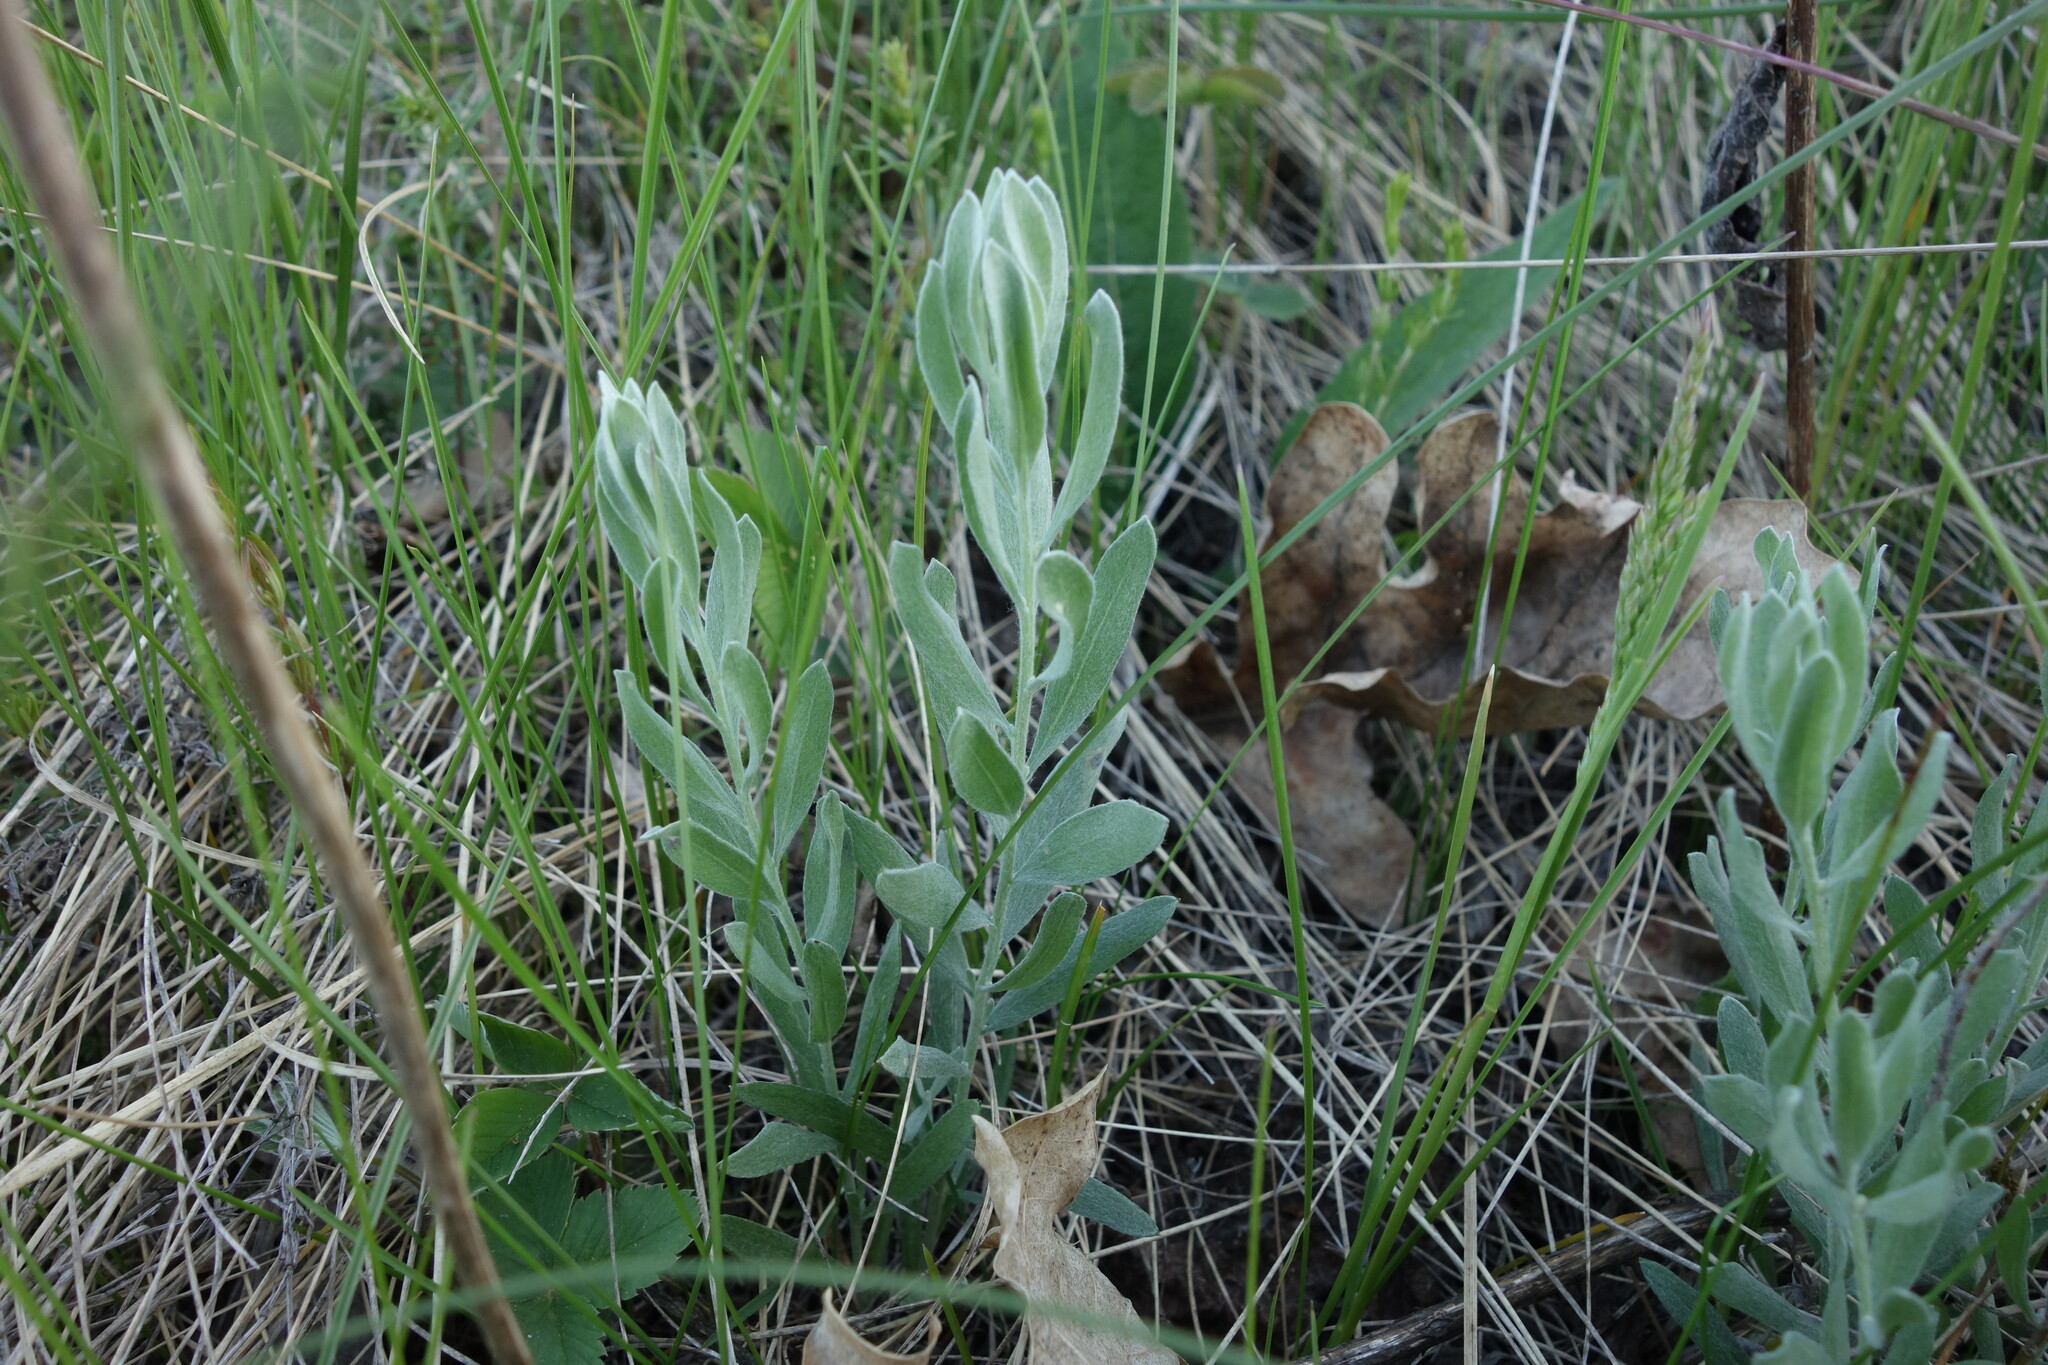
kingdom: Plantae
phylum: Tracheophyta
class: Magnoliopsida
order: Asterales
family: Asteraceae
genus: Galatella
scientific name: Galatella villosa
